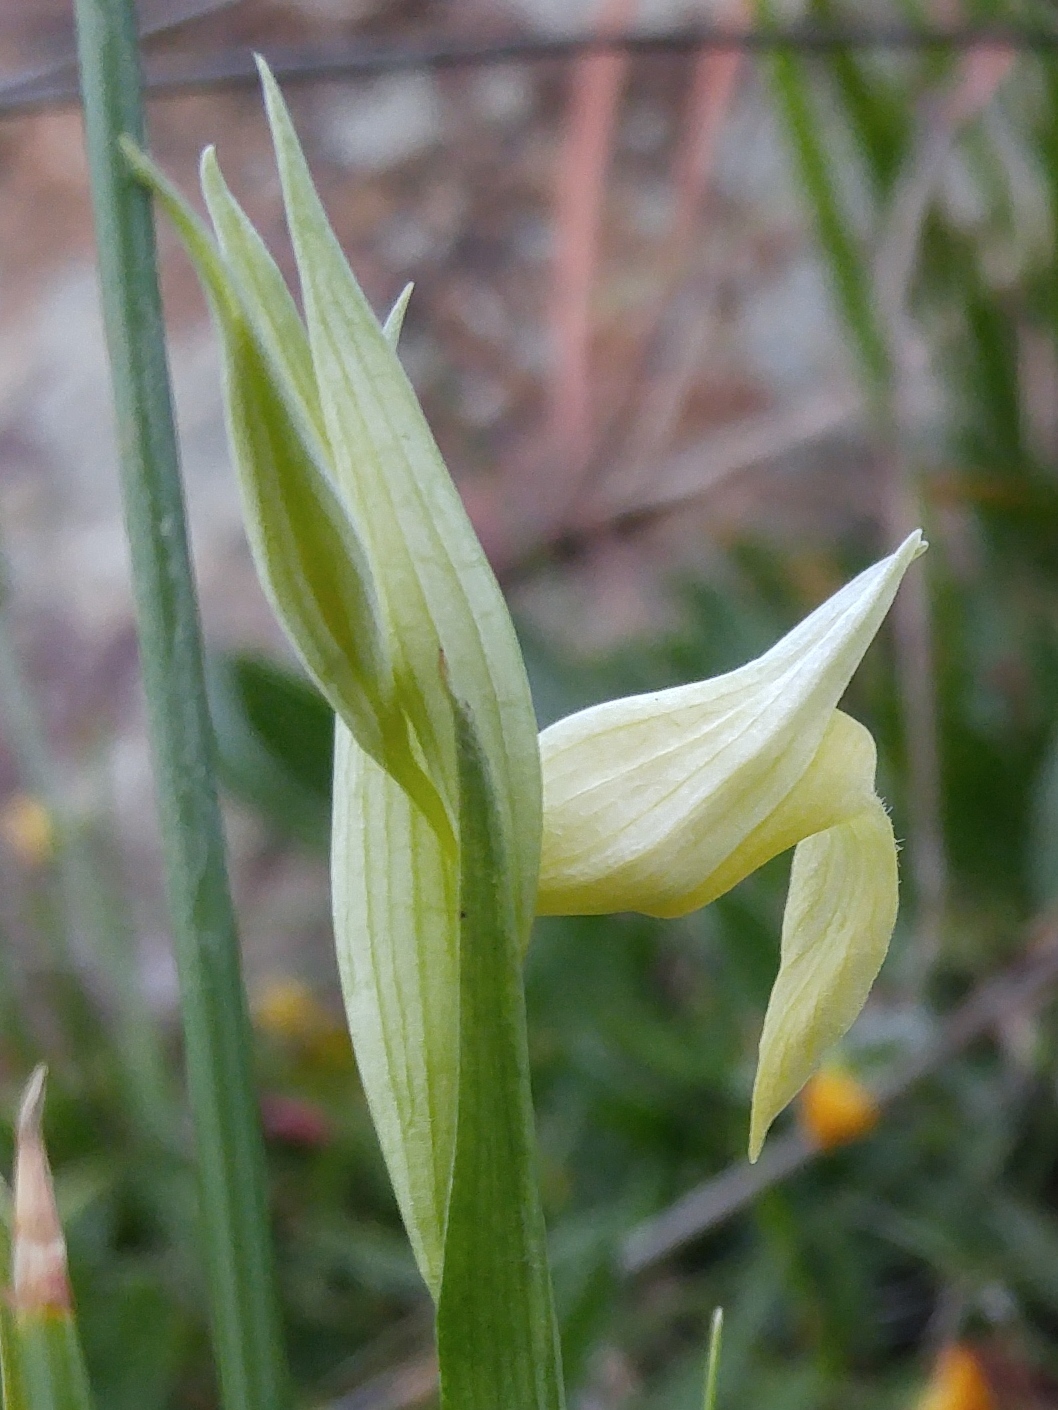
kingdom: Plantae
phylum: Tracheophyta
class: Liliopsida
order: Asparagales
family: Orchidaceae
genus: Serapias
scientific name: Serapias lingua
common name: Tongue-orchid
